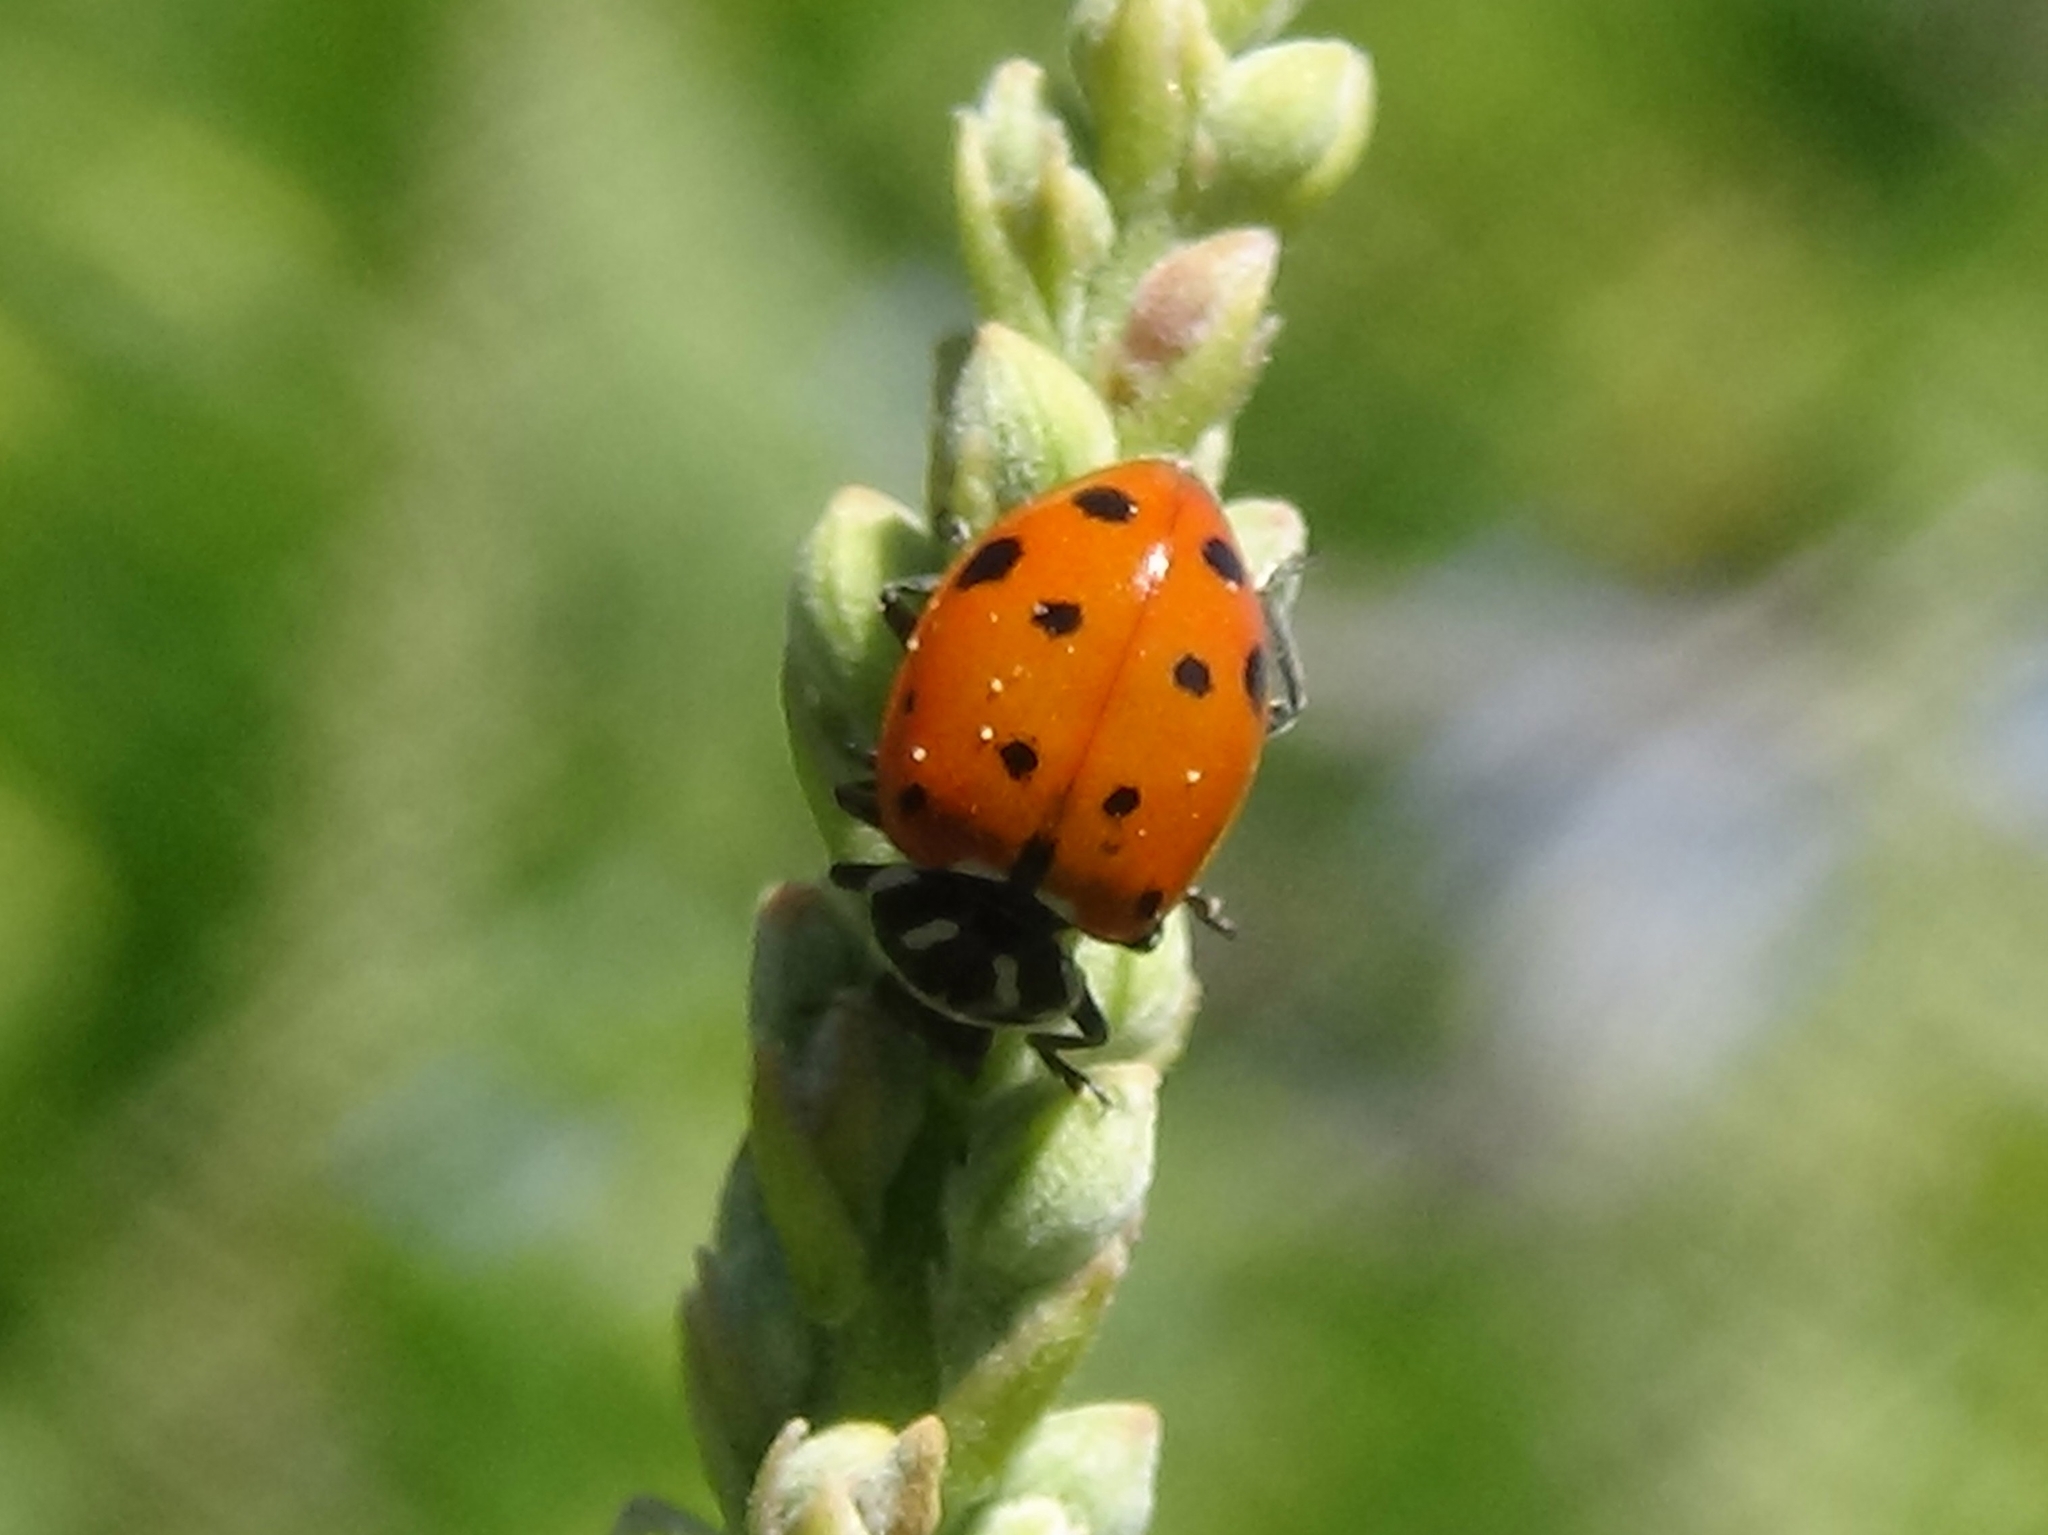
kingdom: Animalia
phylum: Arthropoda
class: Insecta
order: Coleoptera
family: Coccinellidae
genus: Hippodamia
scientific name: Hippodamia convergens
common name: Convergent lady beetle
